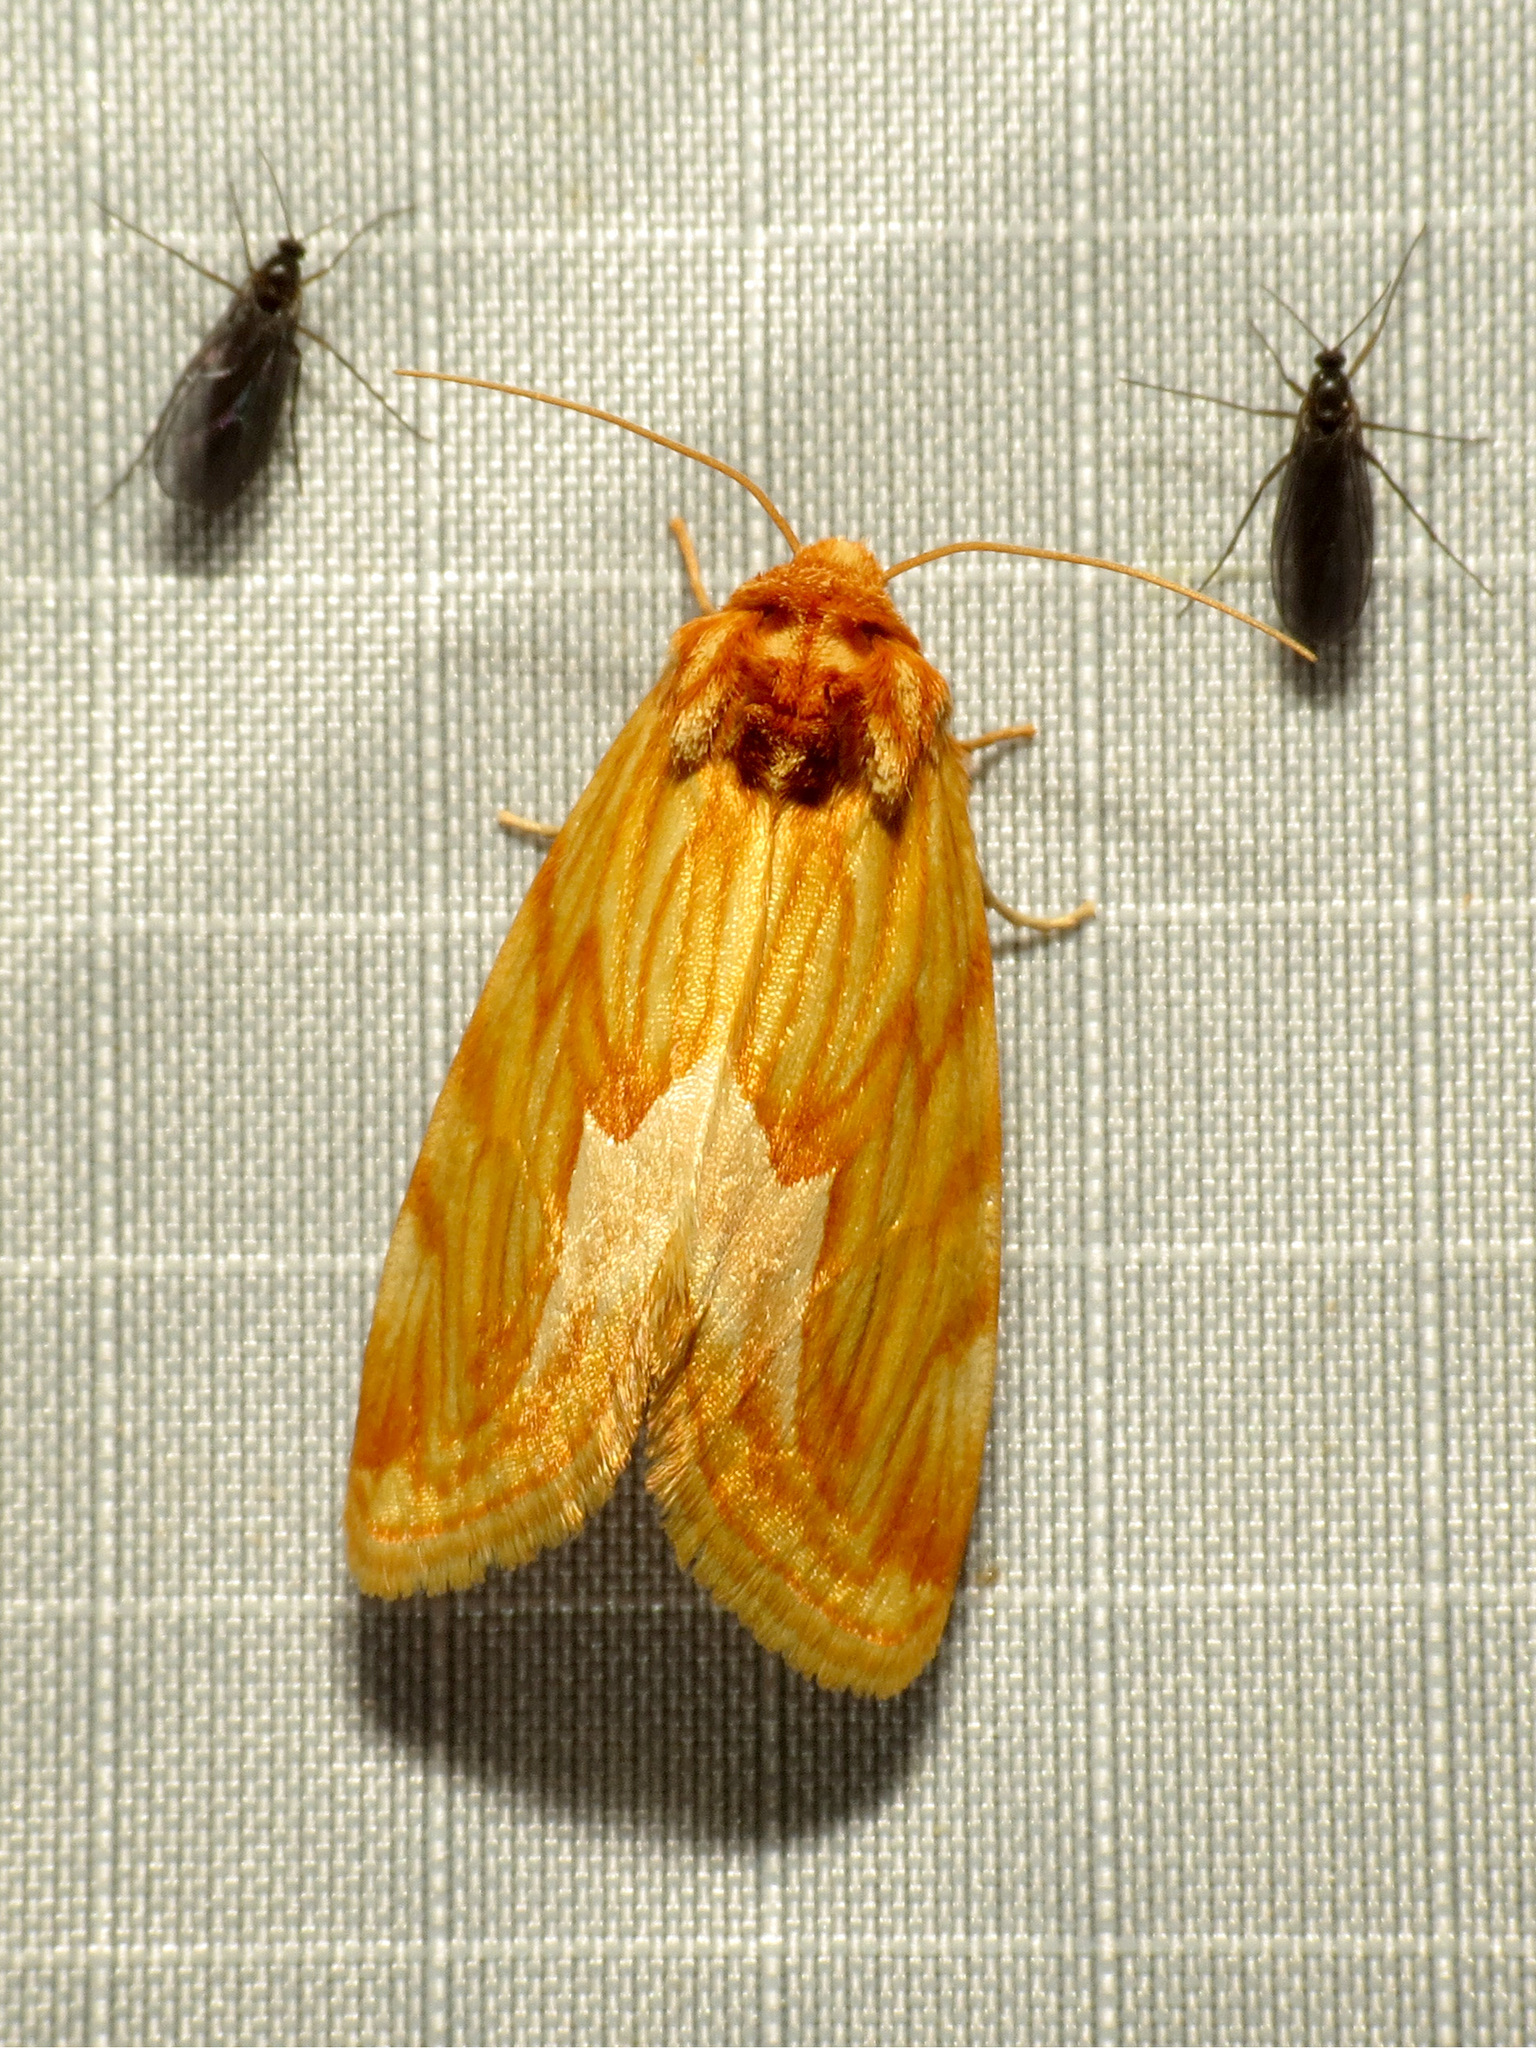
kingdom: Animalia
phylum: Arthropoda
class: Insecta
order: Lepidoptera
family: Noctuidae
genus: Cirrhophanus
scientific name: Cirrhophanus dyari
